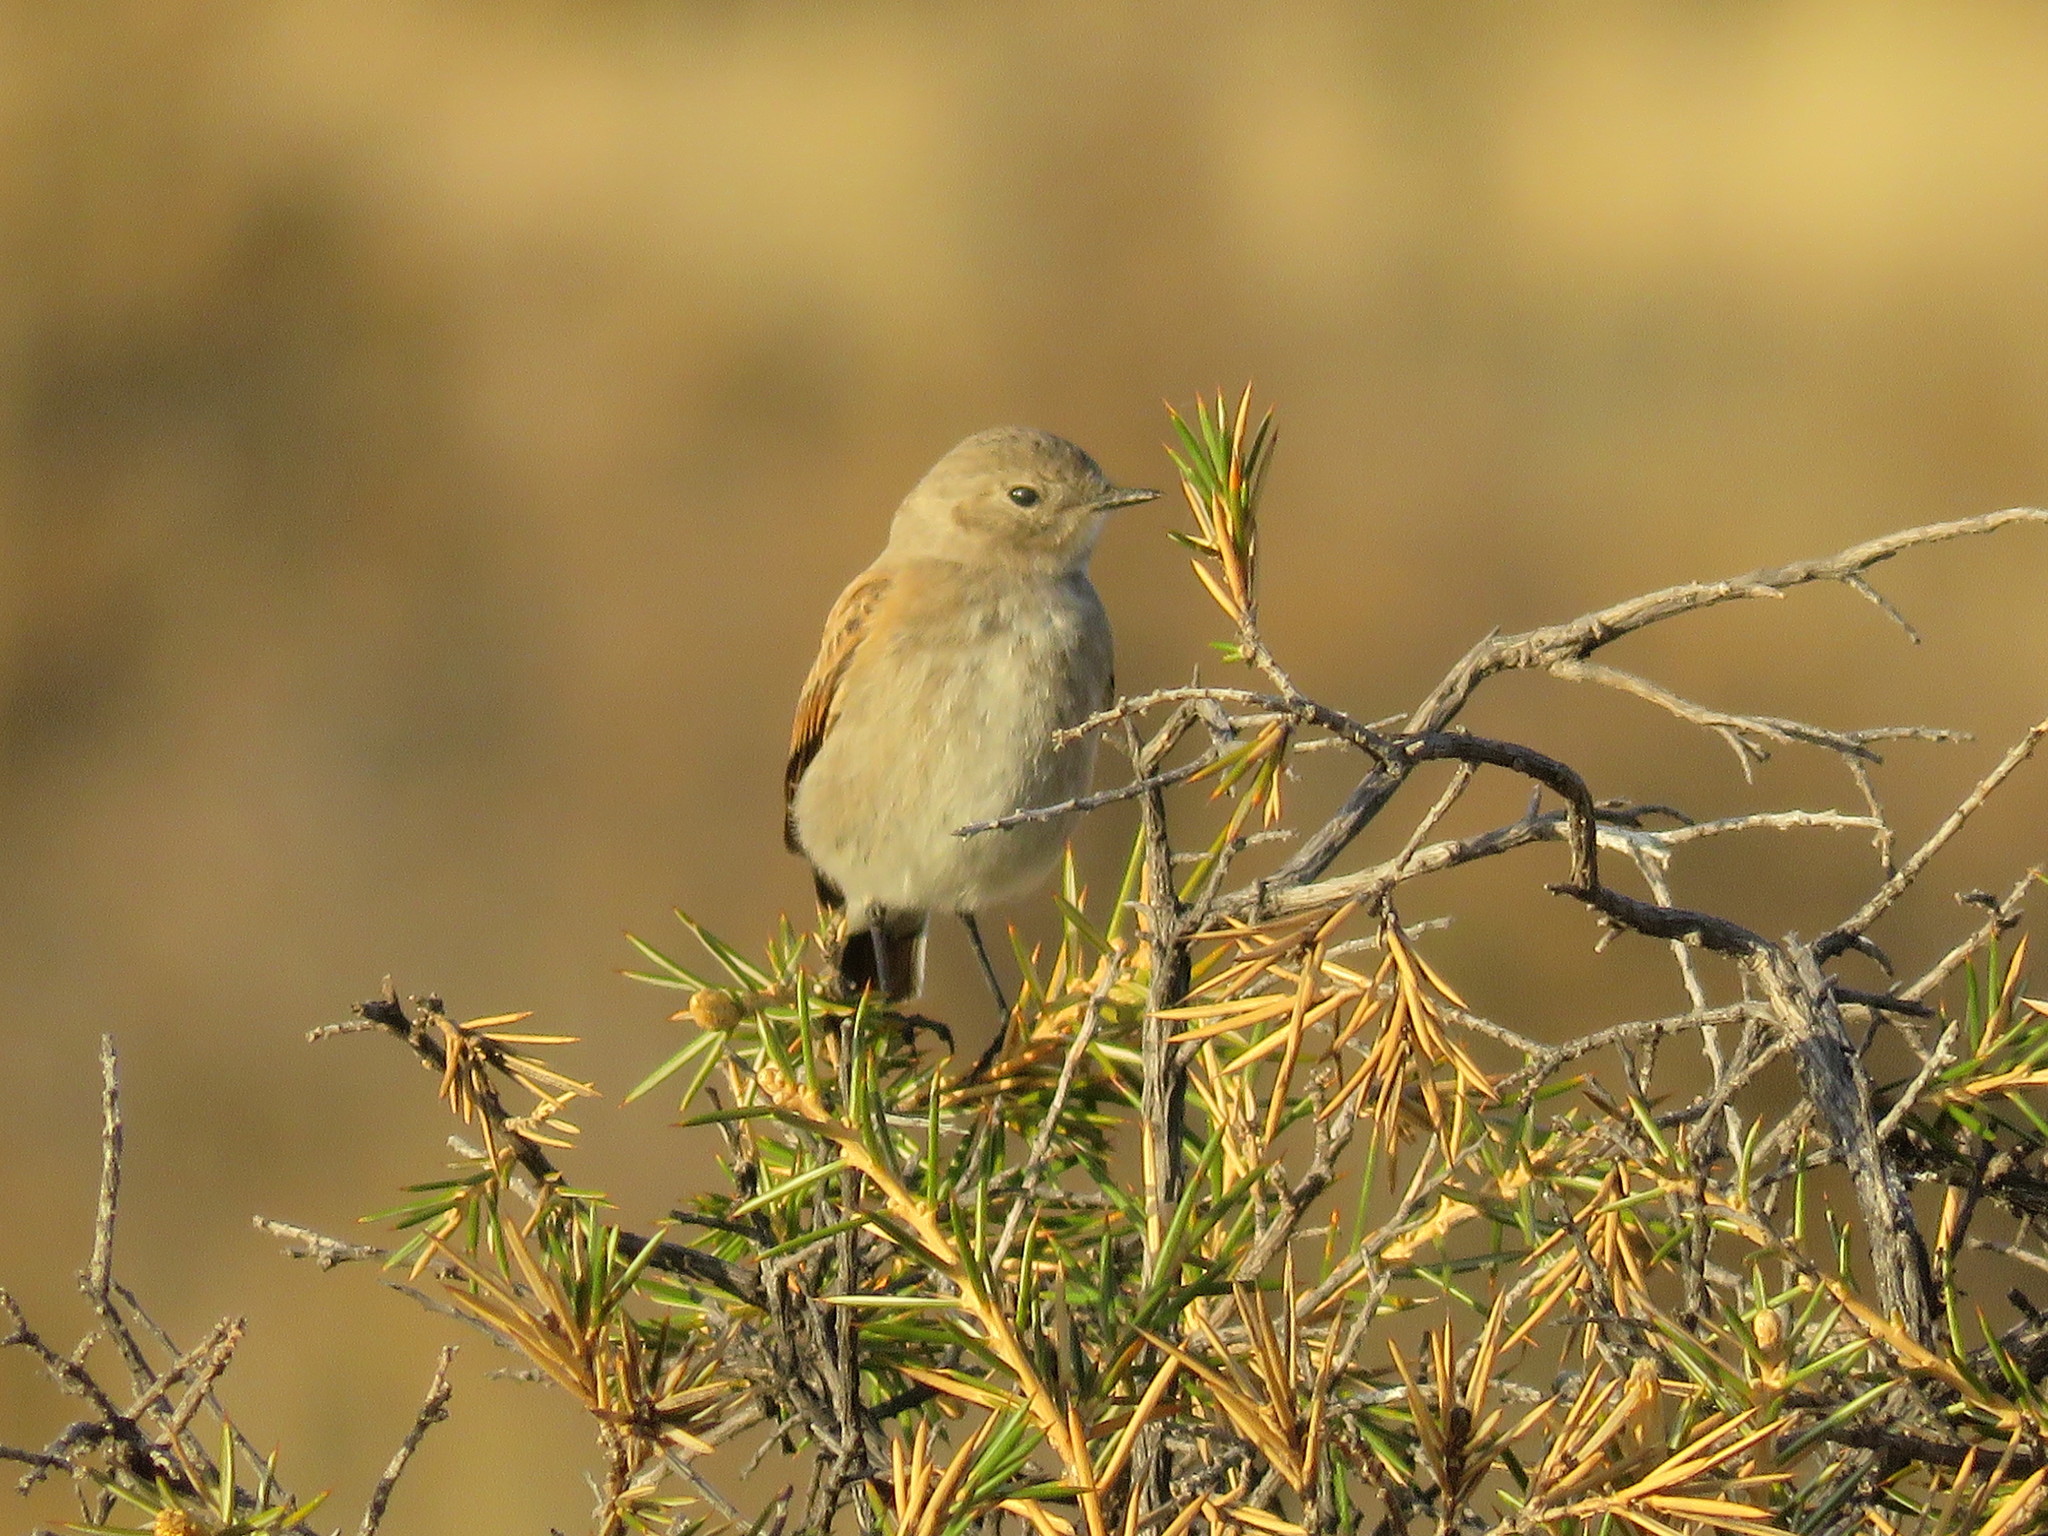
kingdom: Animalia
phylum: Chordata
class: Aves
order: Passeriformes
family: Tyrannidae
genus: Lessonia
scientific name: Lessonia rufa
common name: Austral negrito
